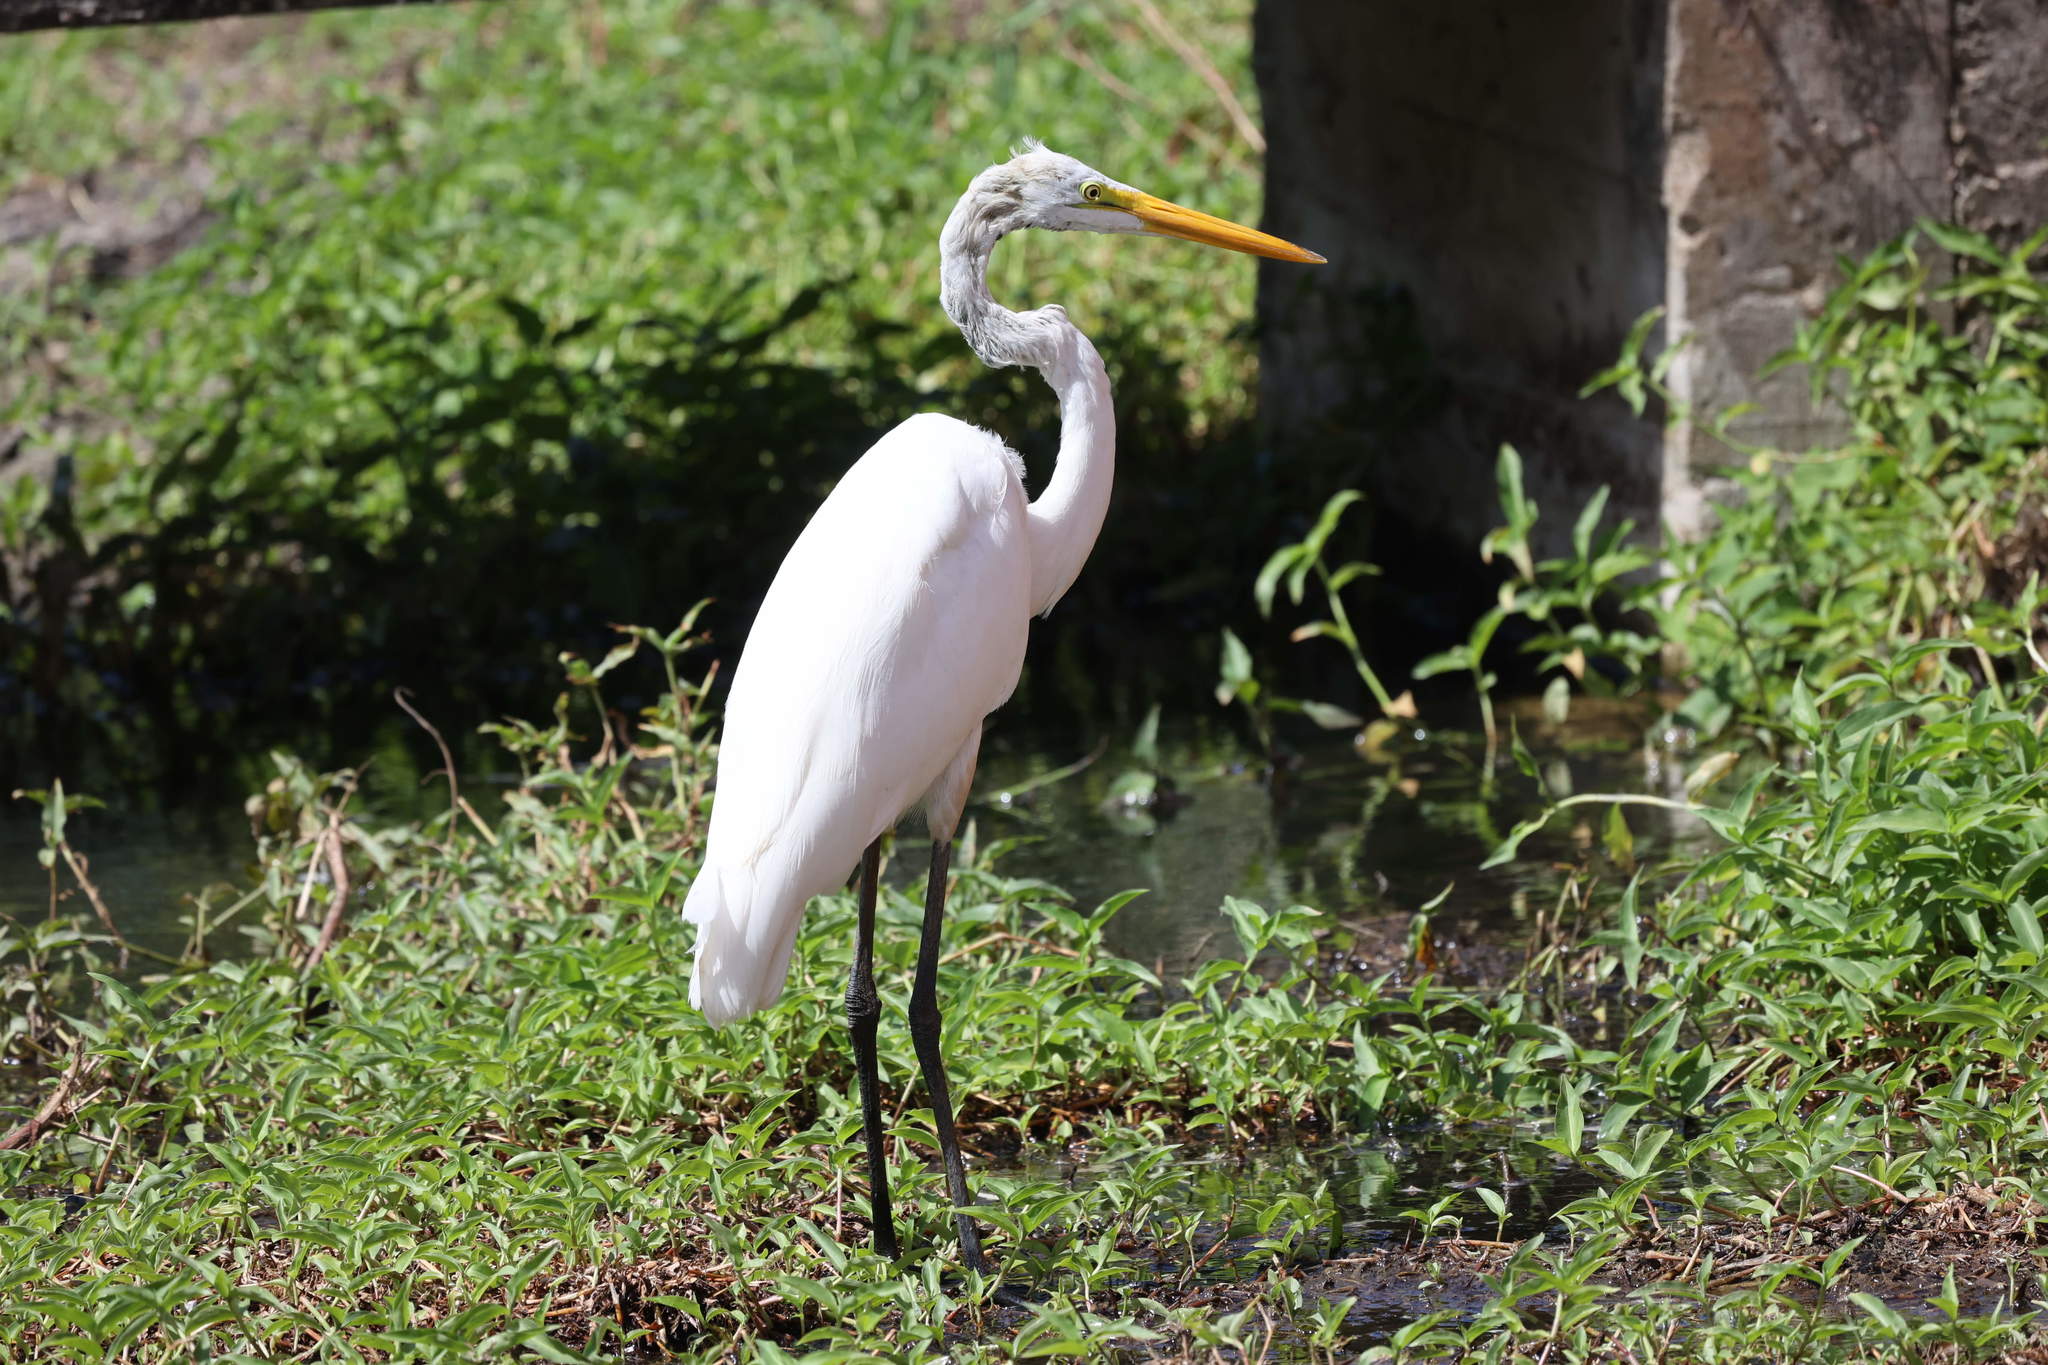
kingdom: Animalia
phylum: Chordata
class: Aves
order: Pelecaniformes
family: Ardeidae
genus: Ardea
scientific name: Ardea alba
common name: Great egret
